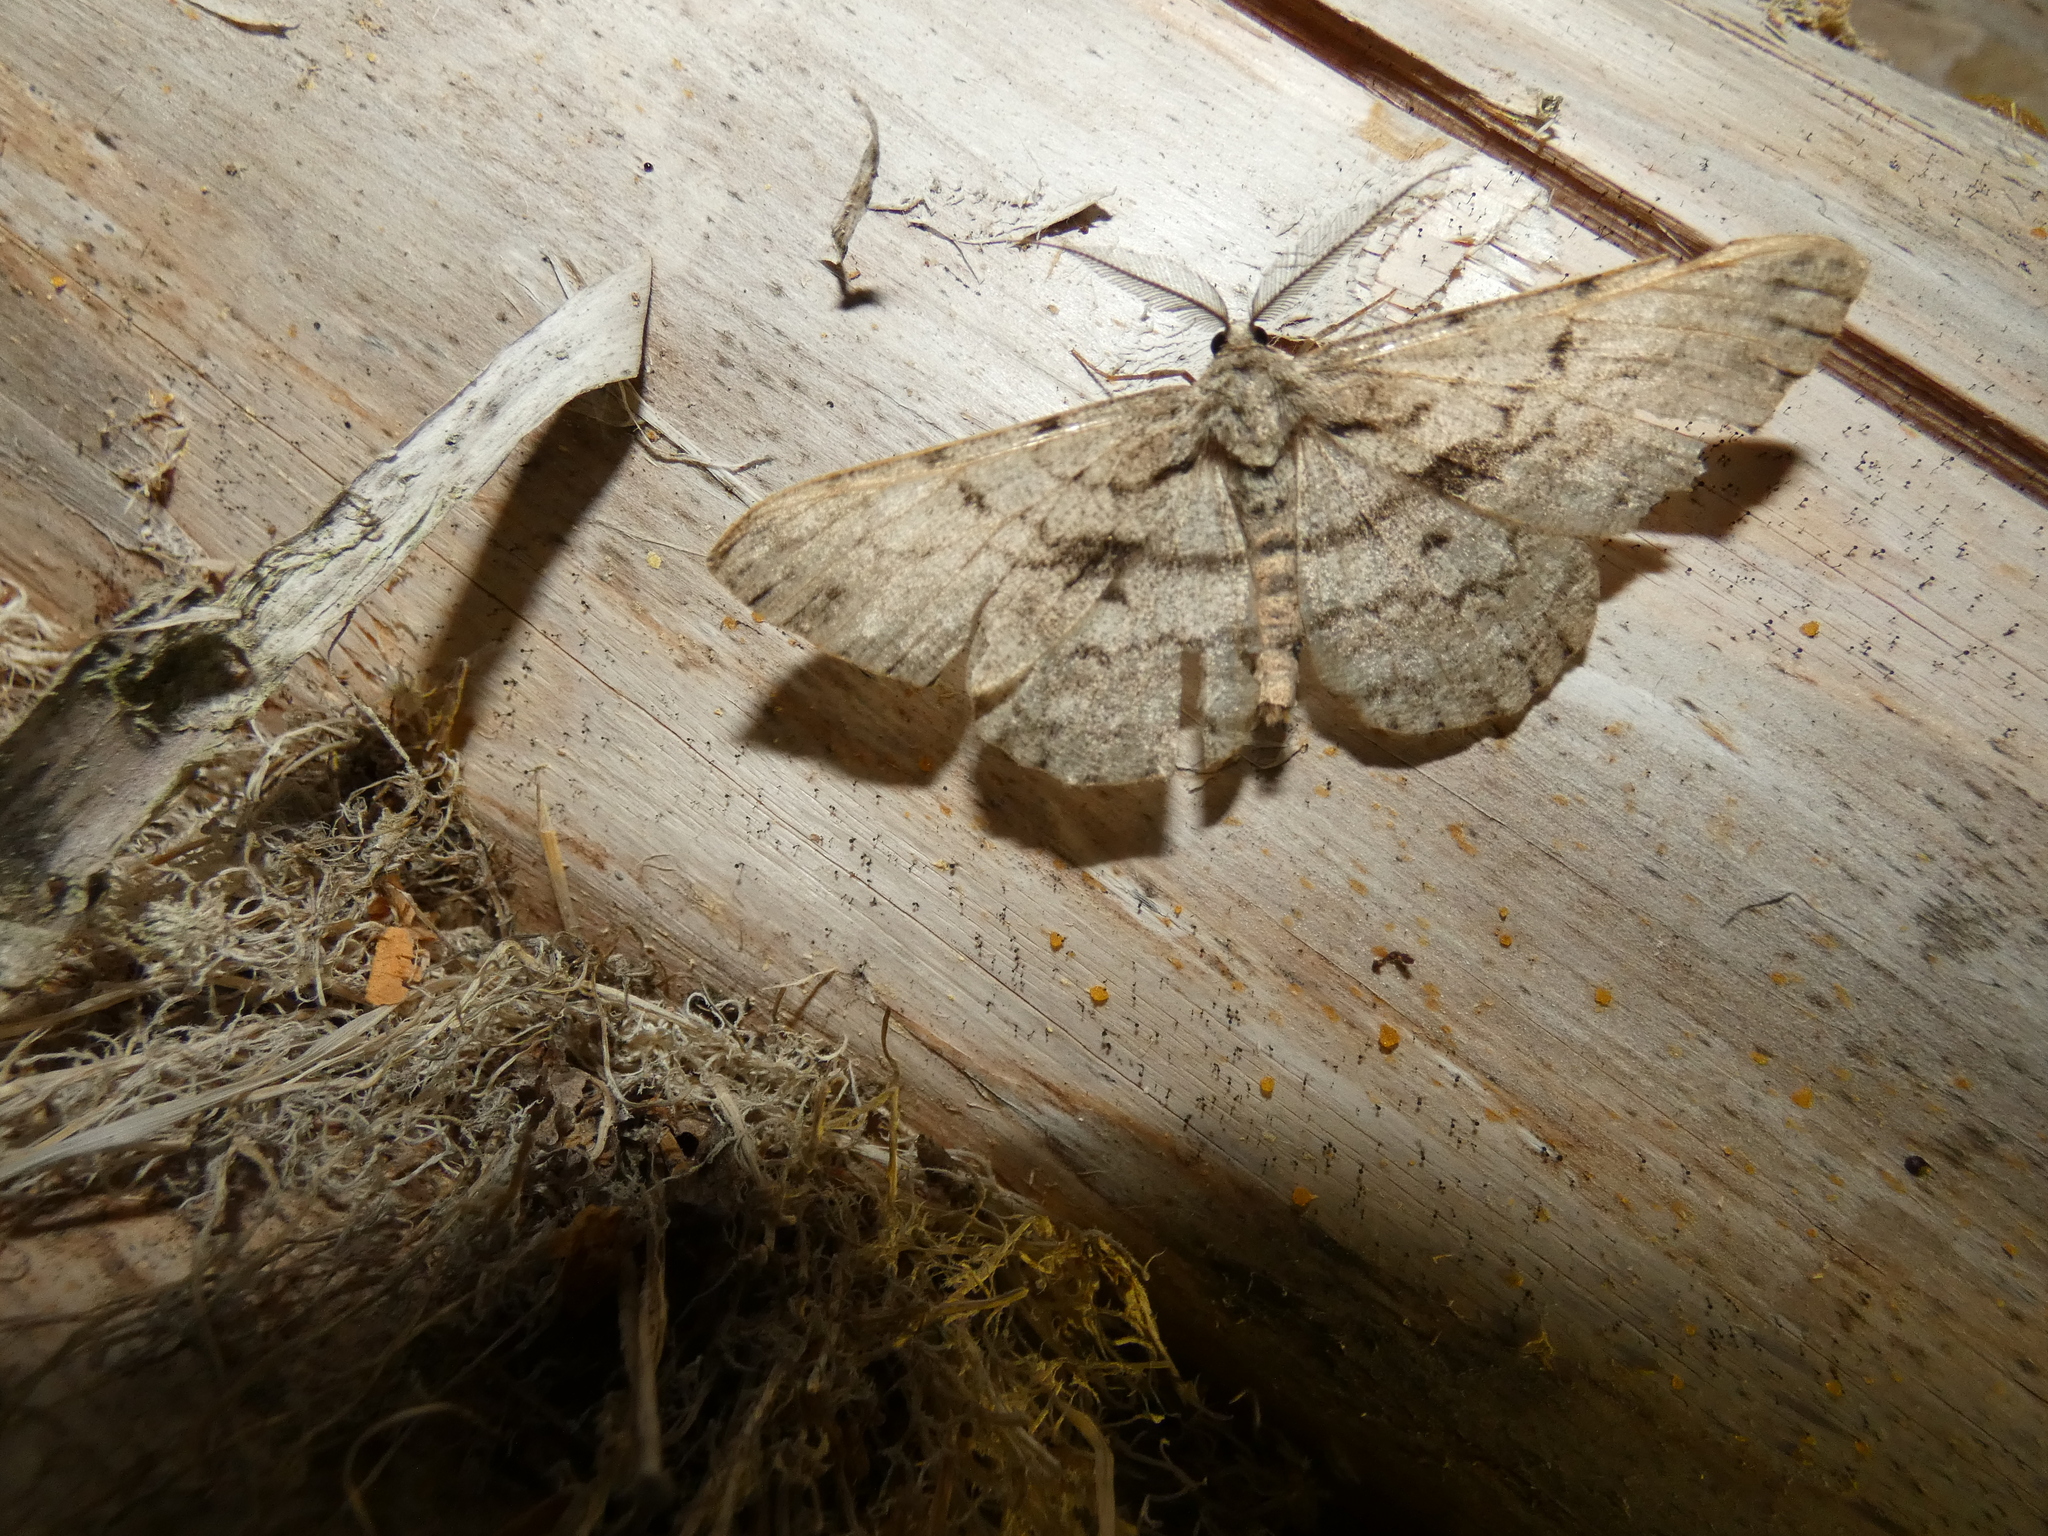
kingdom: Animalia
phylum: Arthropoda
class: Insecta
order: Lepidoptera
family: Geometridae
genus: Hypomecis
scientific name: Hypomecis roboraria
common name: Great oak beauty
